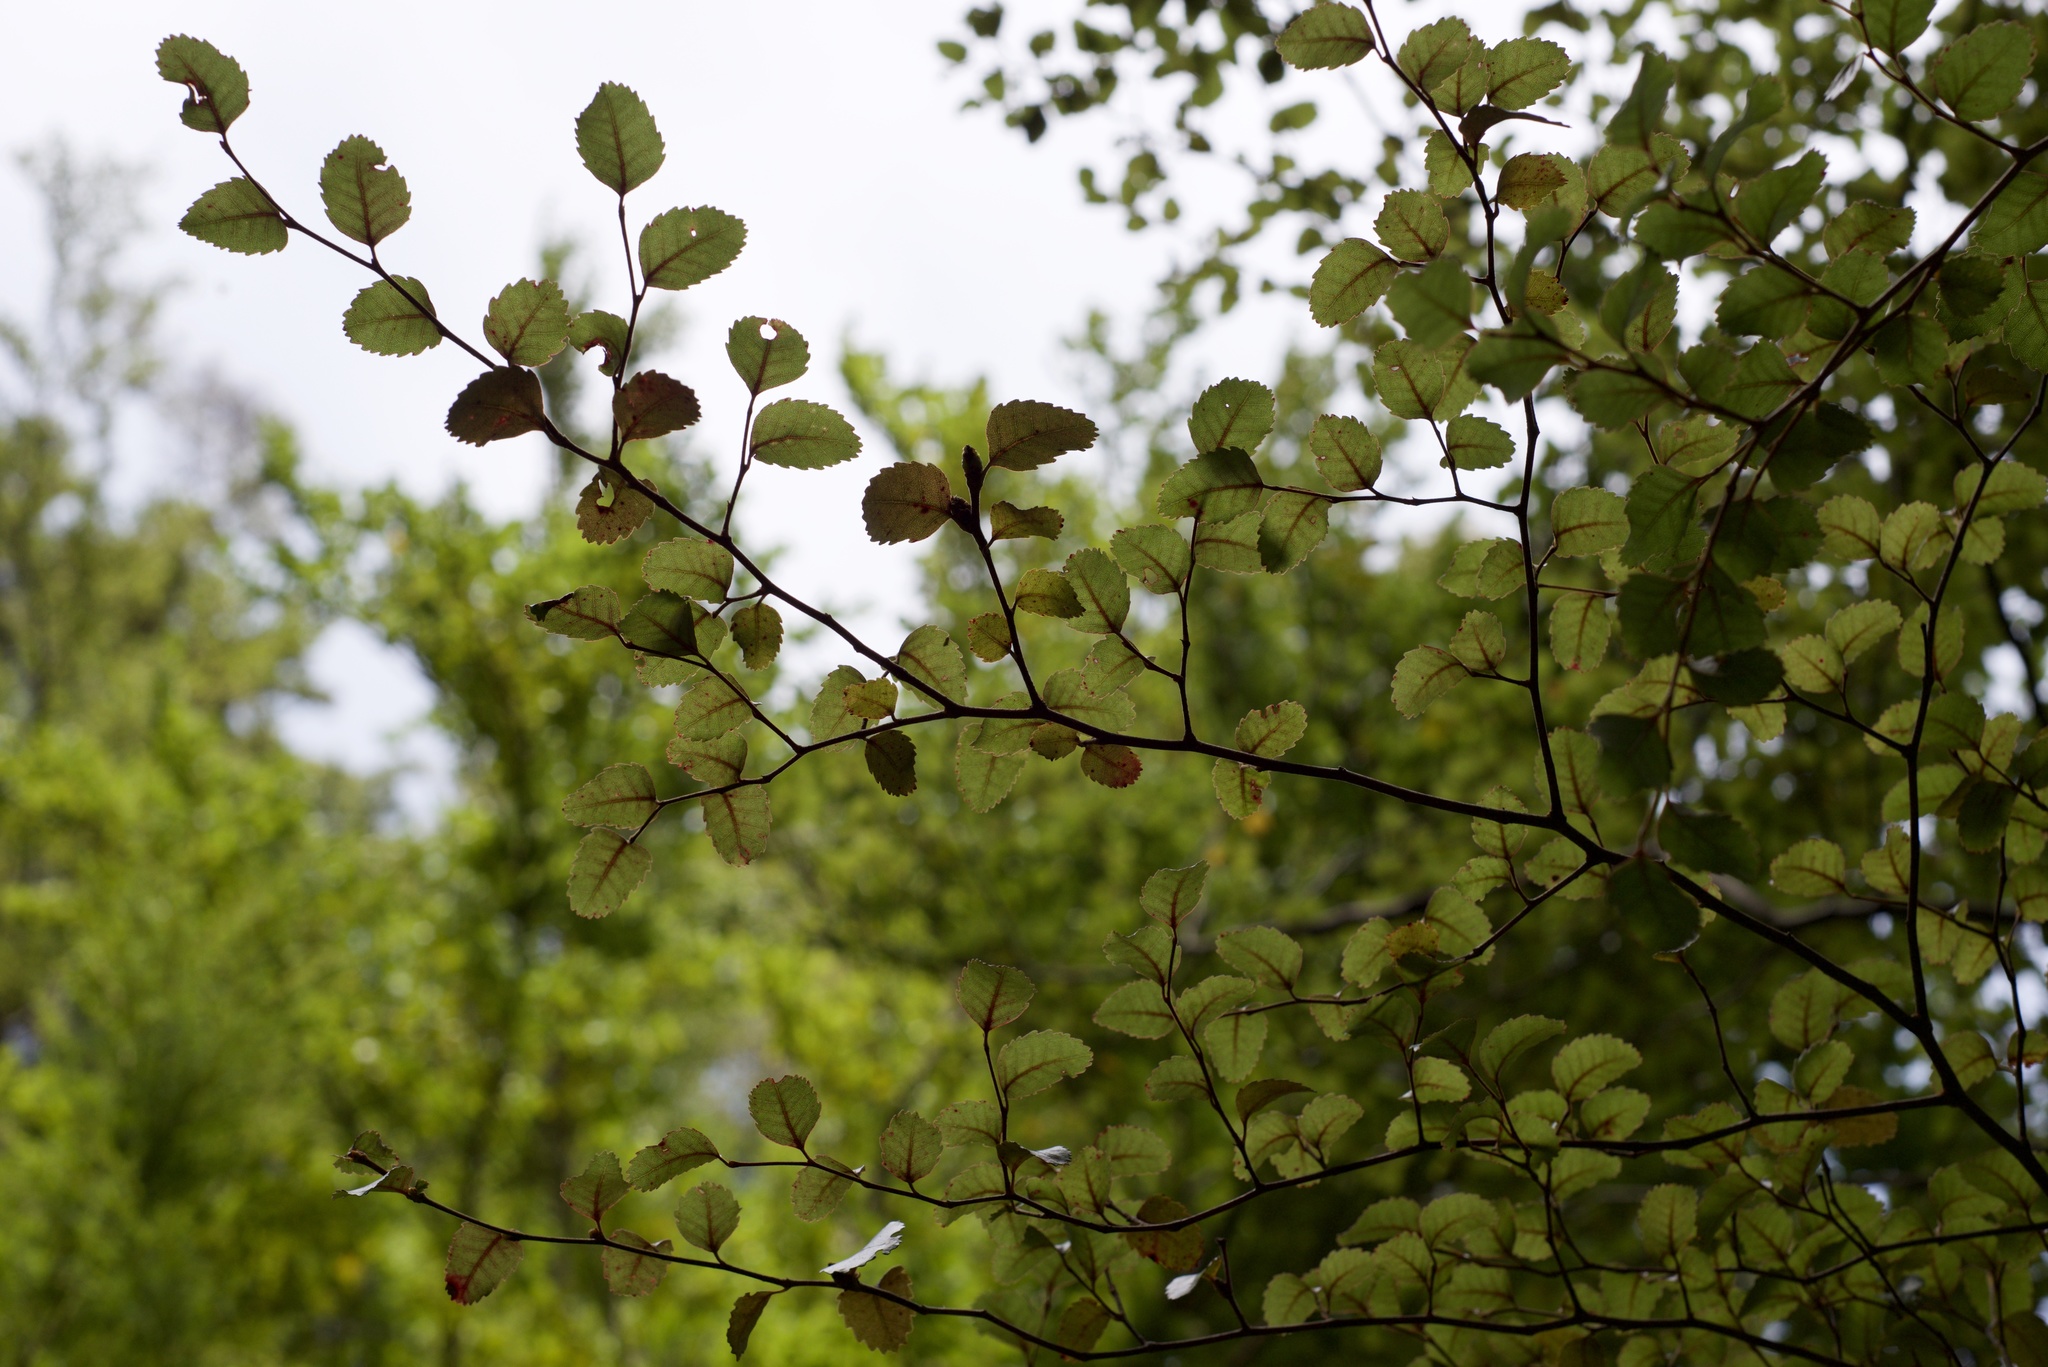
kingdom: Plantae
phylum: Tracheophyta
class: Magnoliopsida
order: Fagales
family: Nothofagaceae
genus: Nothofagus
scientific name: Nothofagus truncata
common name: Hard beech
